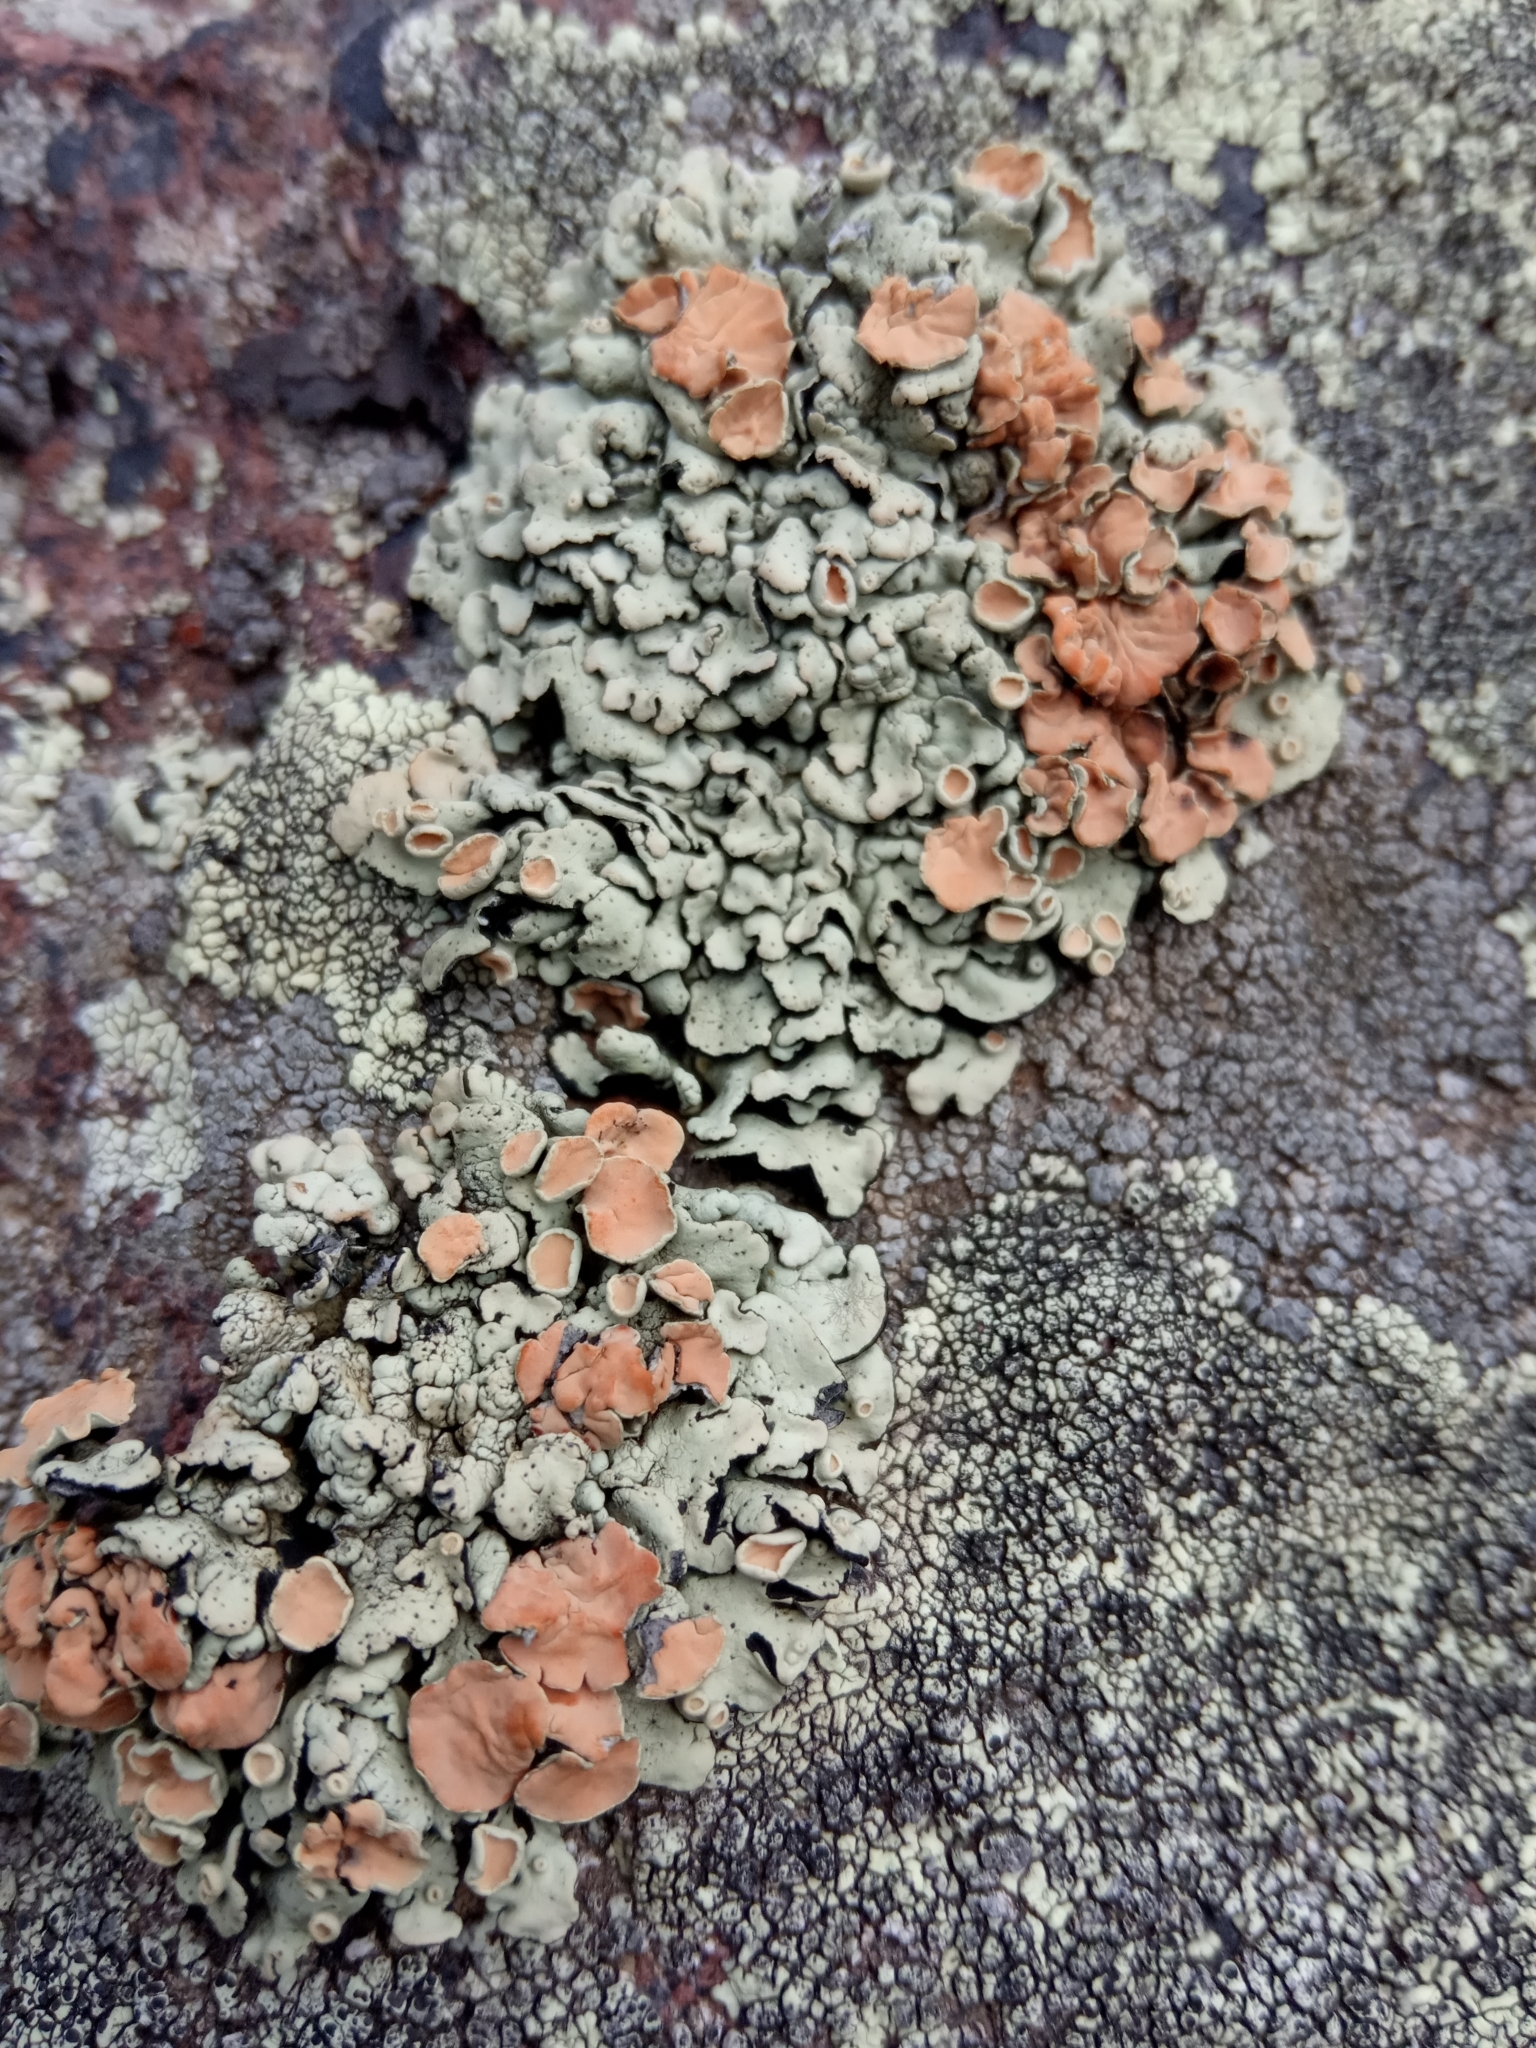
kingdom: Fungi
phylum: Ascomycota
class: Lecanoromycetes
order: Lecanorales
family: Lecanoraceae
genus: Omphalodina
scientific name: Omphalodina chrysoleuca
